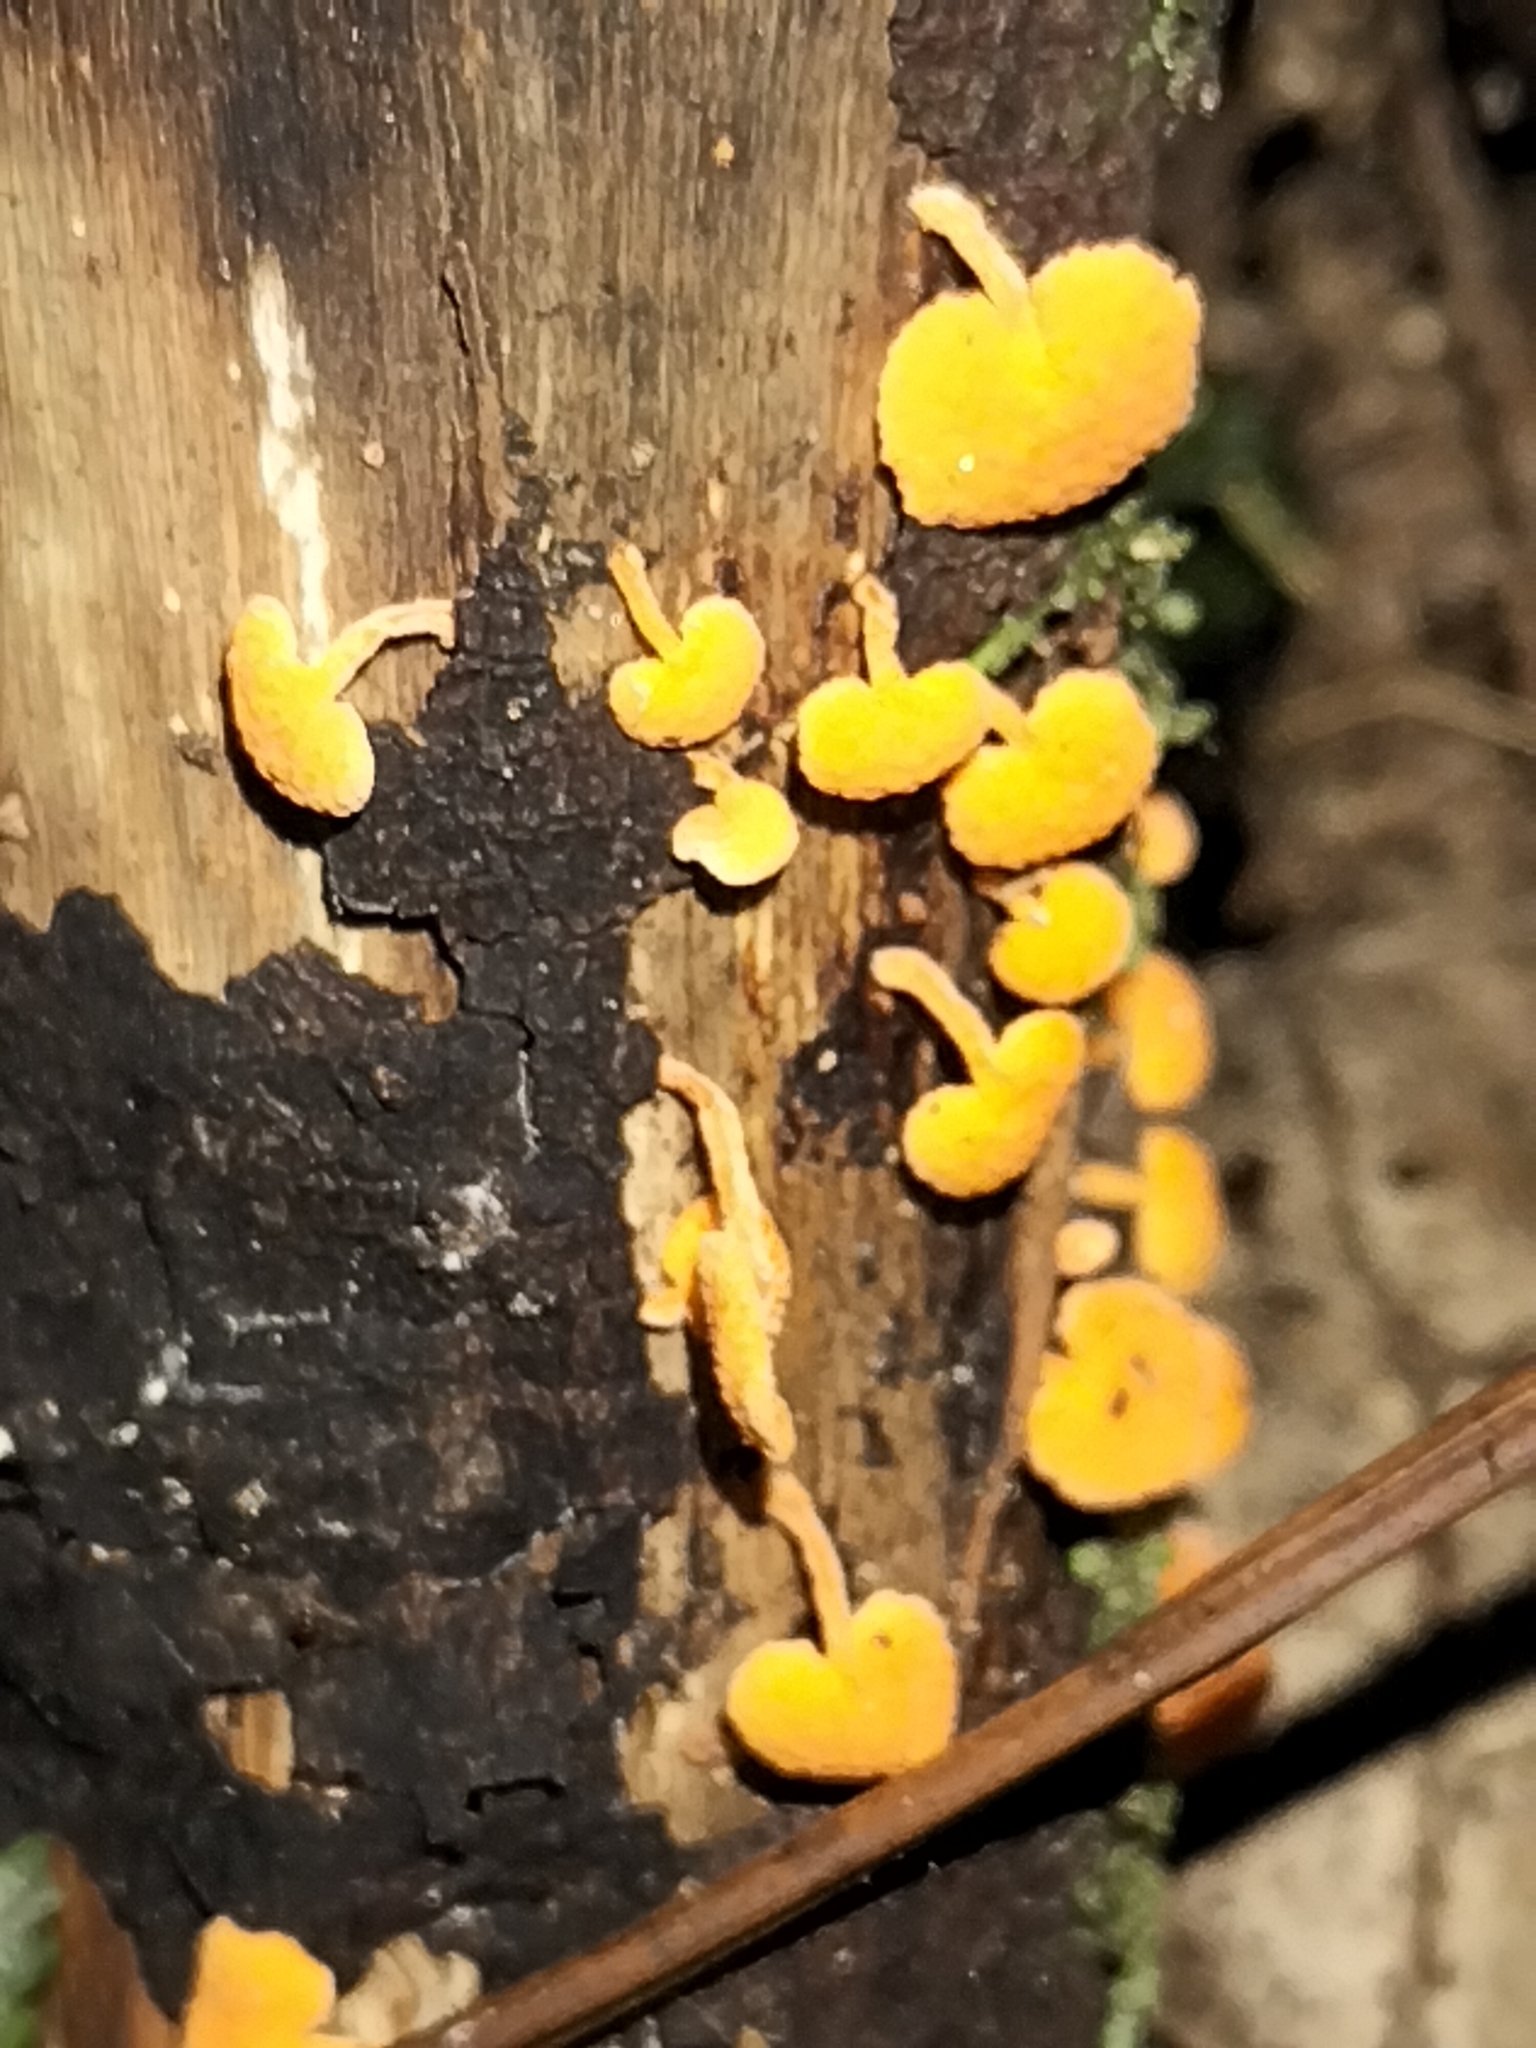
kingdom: Fungi
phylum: Basidiomycota
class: Agaricomycetes
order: Agaricales
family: Mycenaceae
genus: Favolaschia
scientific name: Favolaschia claudopus
